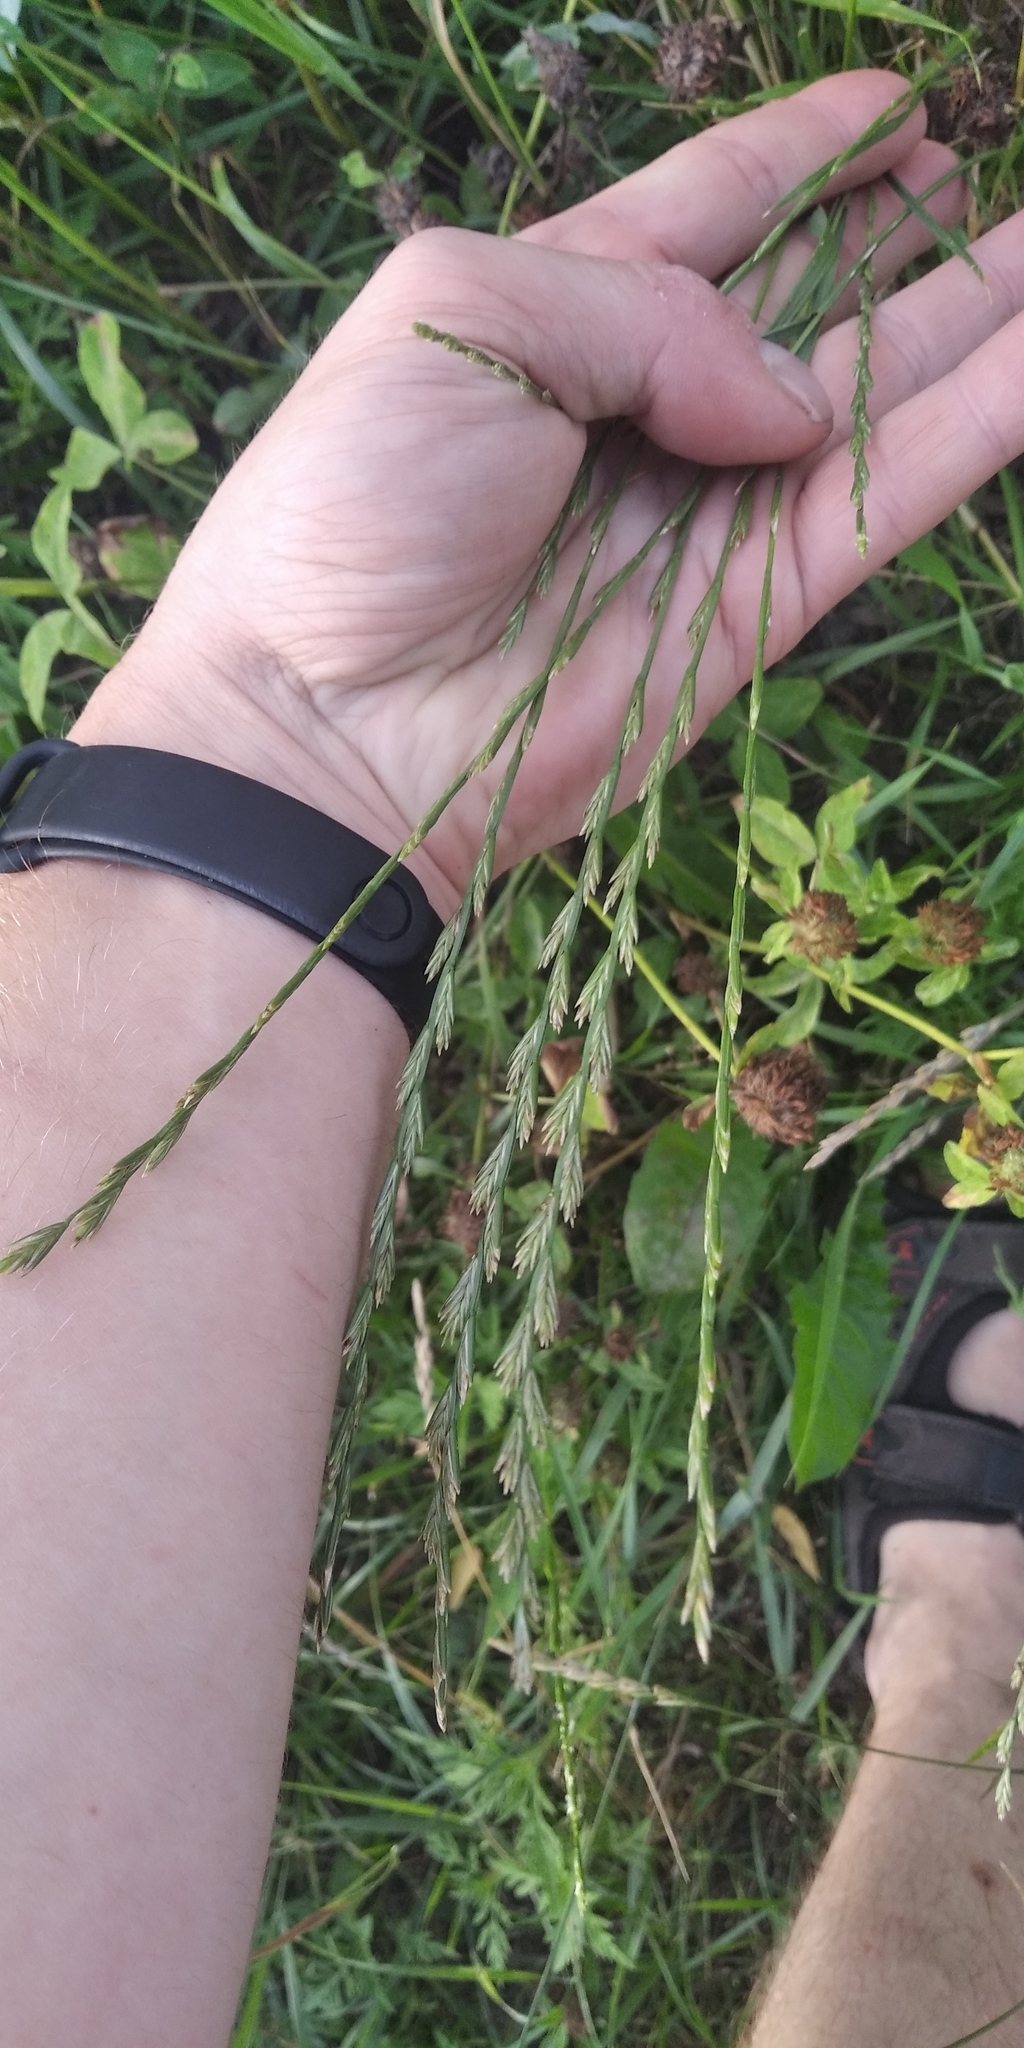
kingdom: Plantae
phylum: Tracheophyta
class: Liliopsida
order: Poales
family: Poaceae
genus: Lolium
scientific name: Lolium perenne
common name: Perennial ryegrass
